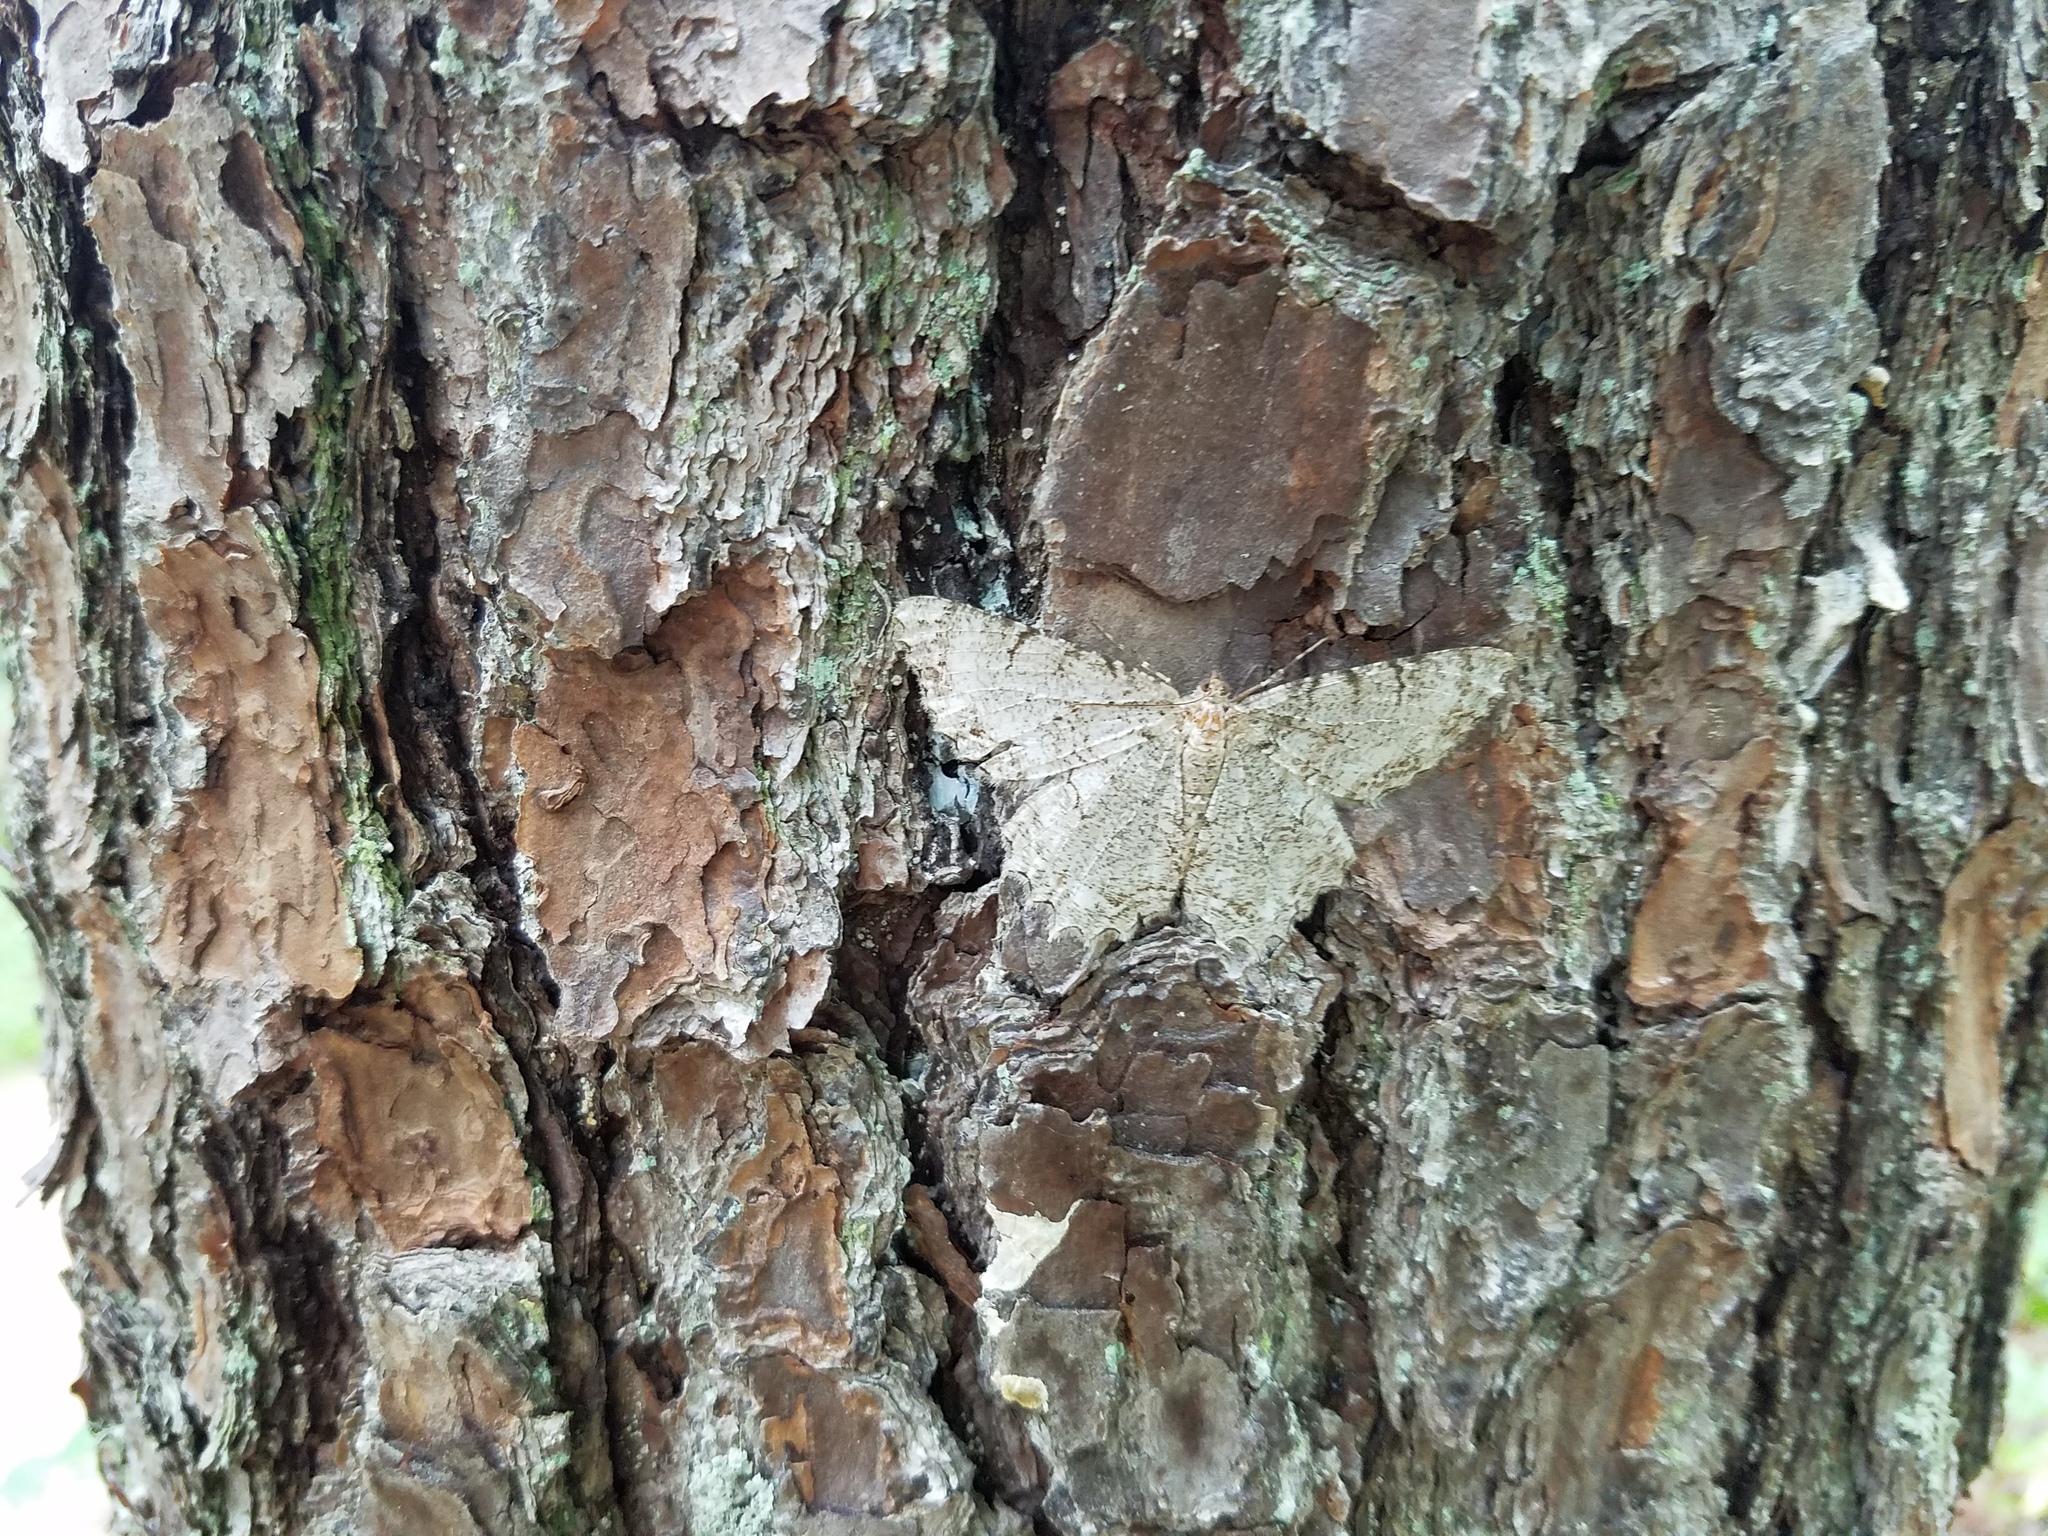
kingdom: Animalia
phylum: Arthropoda
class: Insecta
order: Lepidoptera
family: Geometridae
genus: Epimecis
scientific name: Epimecis hortaria
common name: Tulip-tree beauty
